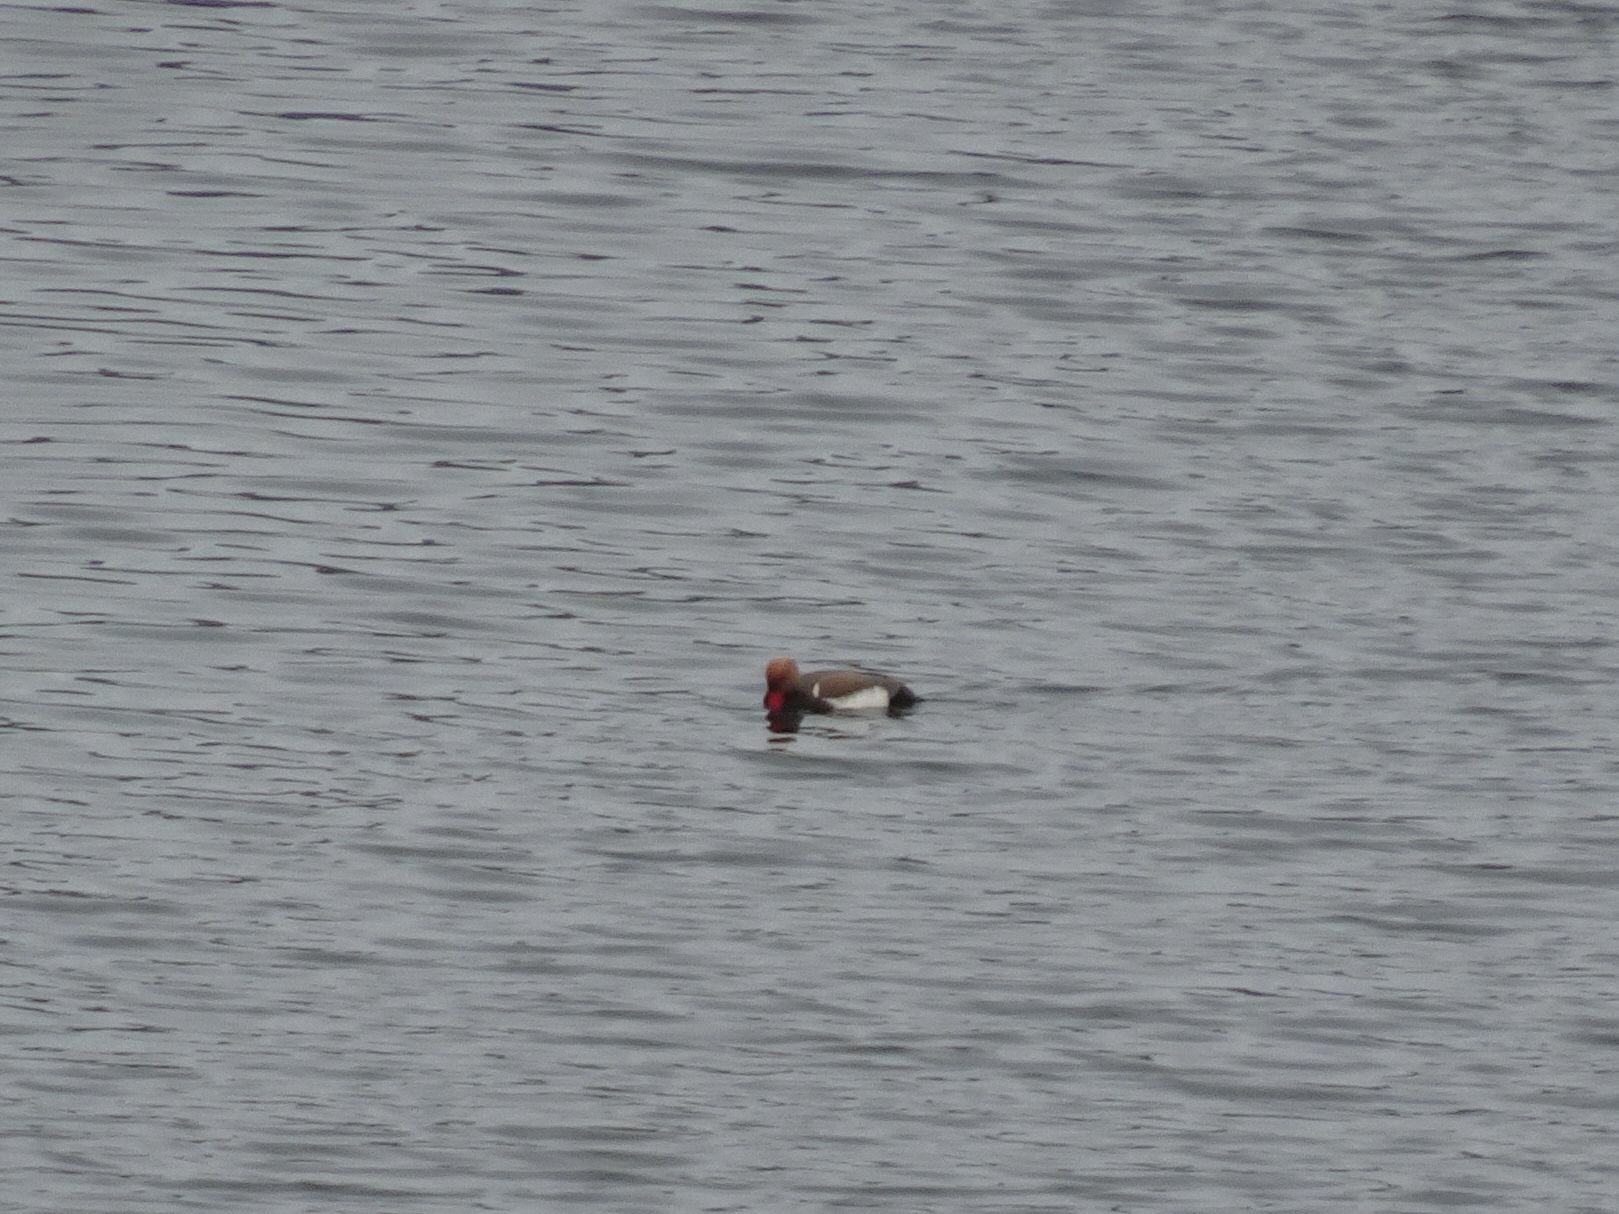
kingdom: Animalia
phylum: Chordata
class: Aves
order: Anseriformes
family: Anatidae
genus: Netta
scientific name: Netta rufina
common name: Red-crested pochard
